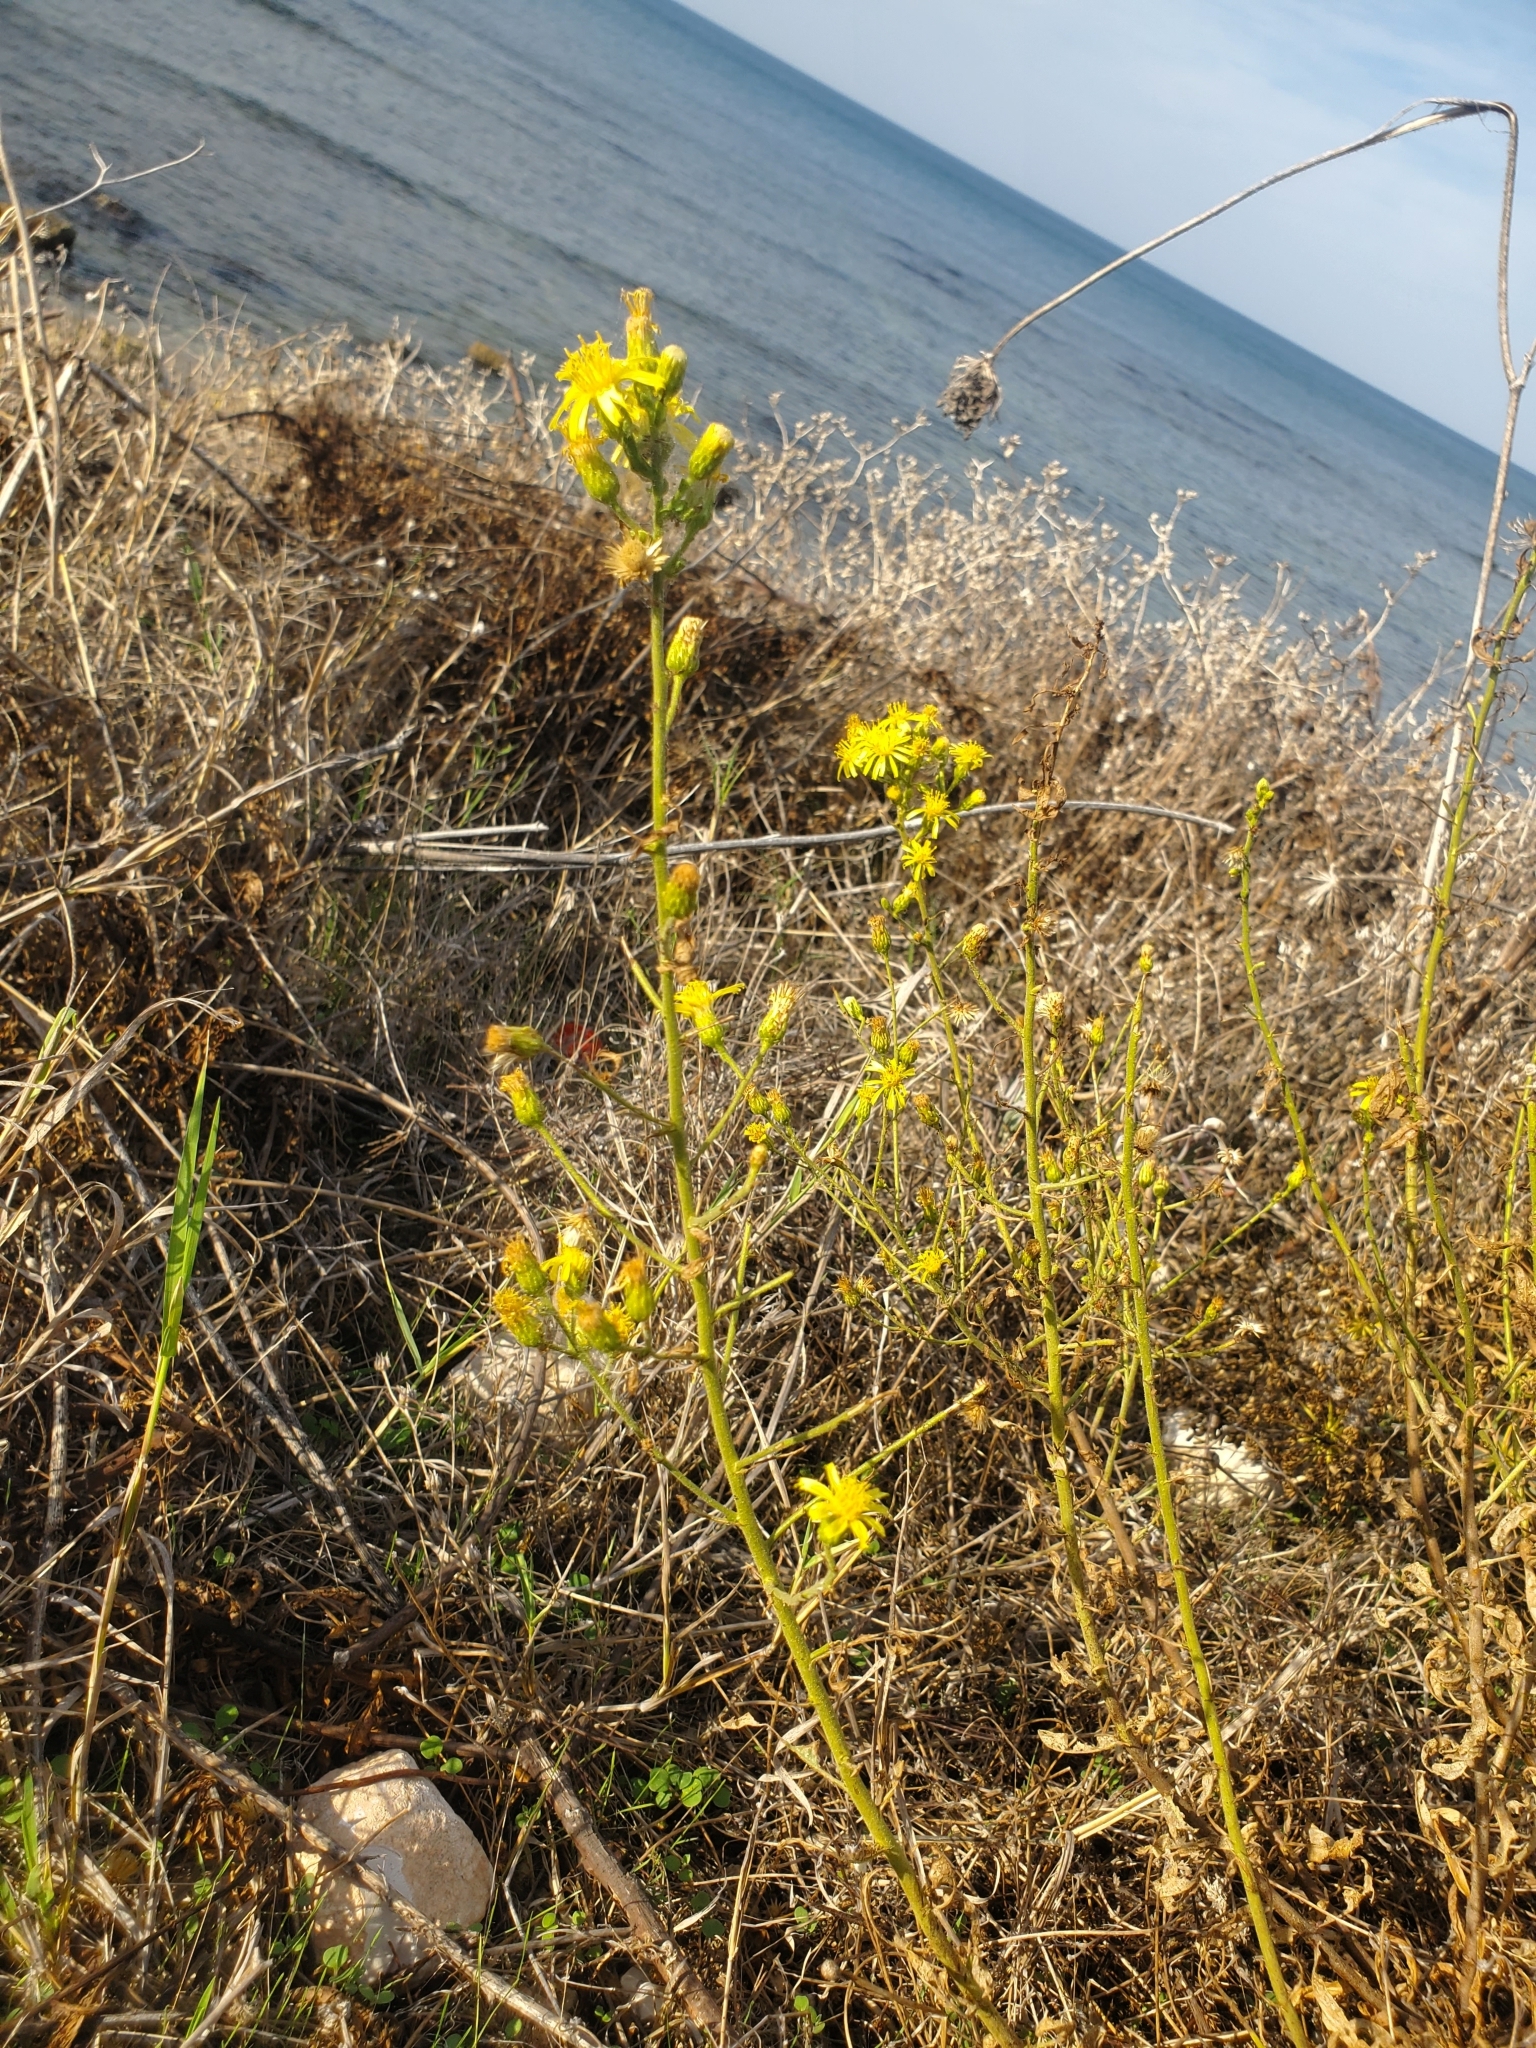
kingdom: Plantae
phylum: Tracheophyta
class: Magnoliopsida
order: Asterales
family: Asteraceae
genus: Dittrichia
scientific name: Dittrichia viscosa
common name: Woody fleabane
